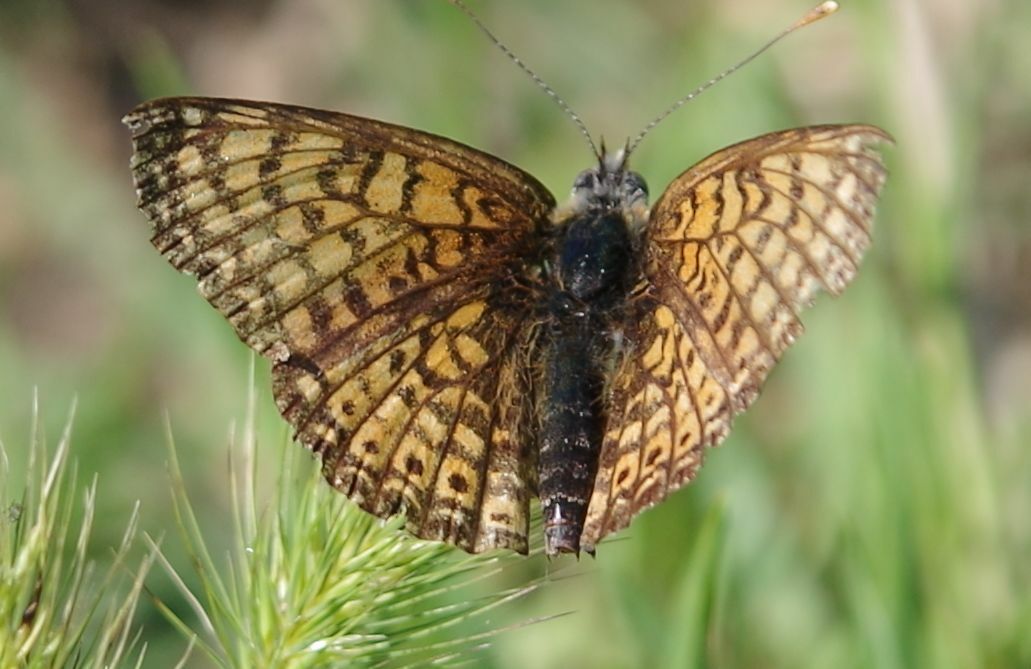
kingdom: Animalia
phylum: Arthropoda
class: Insecta
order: Lepidoptera
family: Nymphalidae
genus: Melitaea
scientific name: Melitaea cinxia
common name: Glanville fritillary
